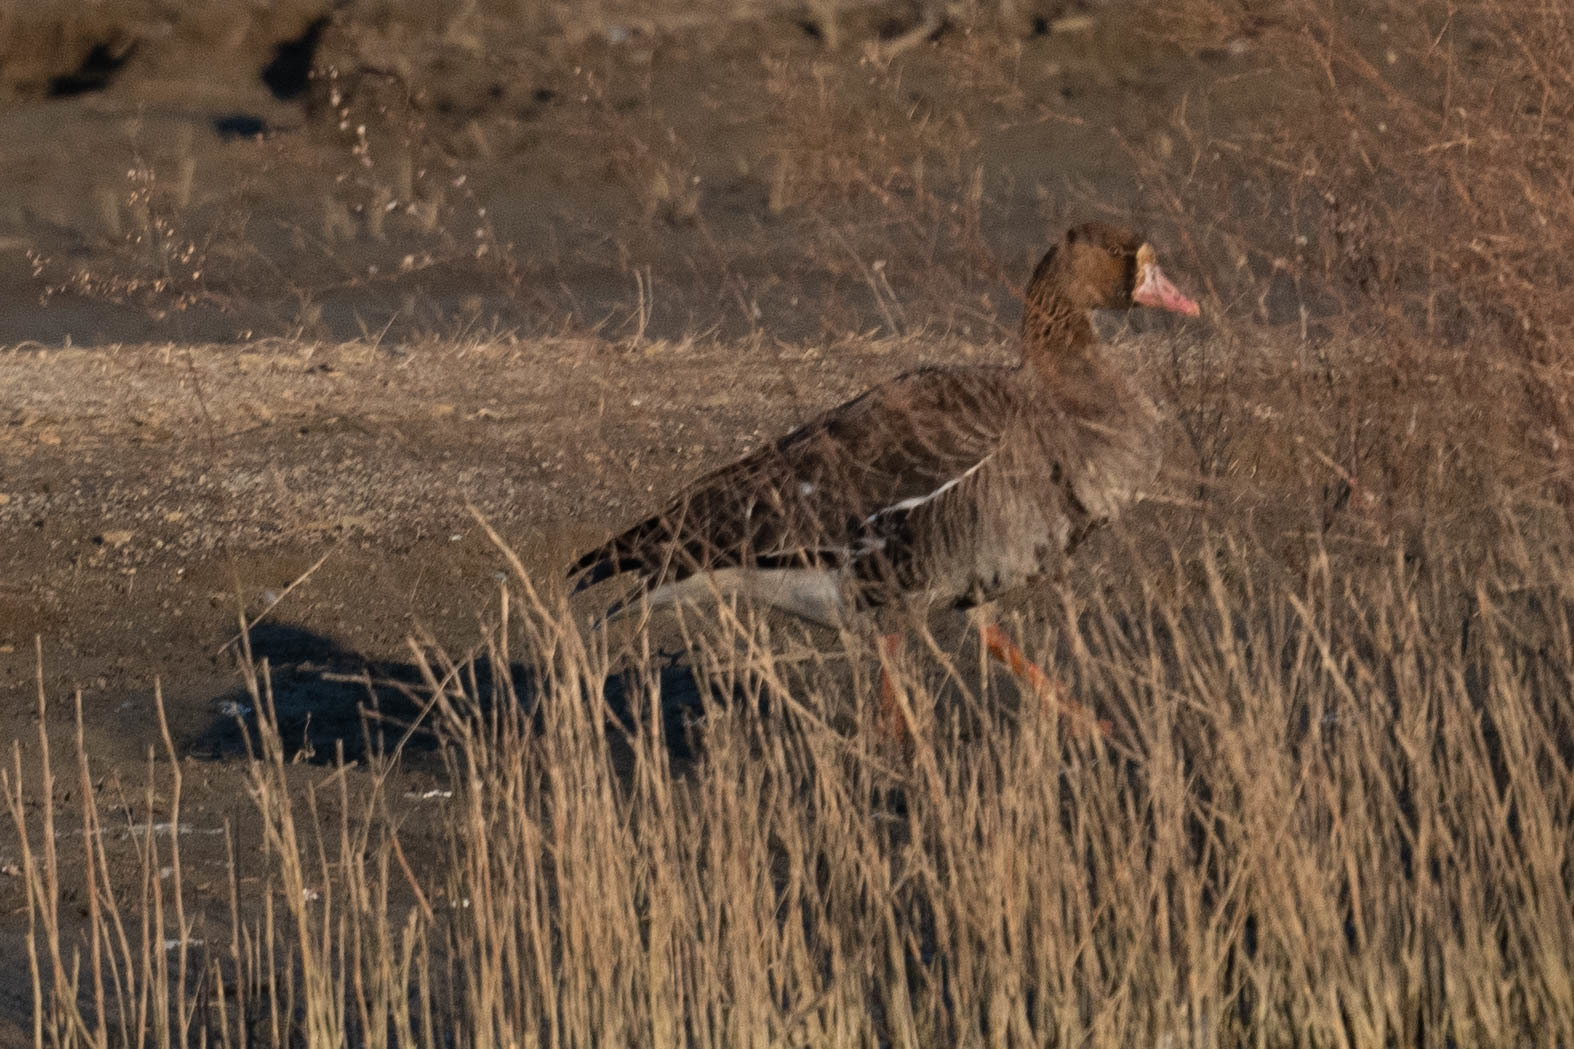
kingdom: Animalia
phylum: Chordata
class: Aves
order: Anseriformes
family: Anatidae
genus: Anser
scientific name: Anser albifrons
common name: Greater white-fronted goose
